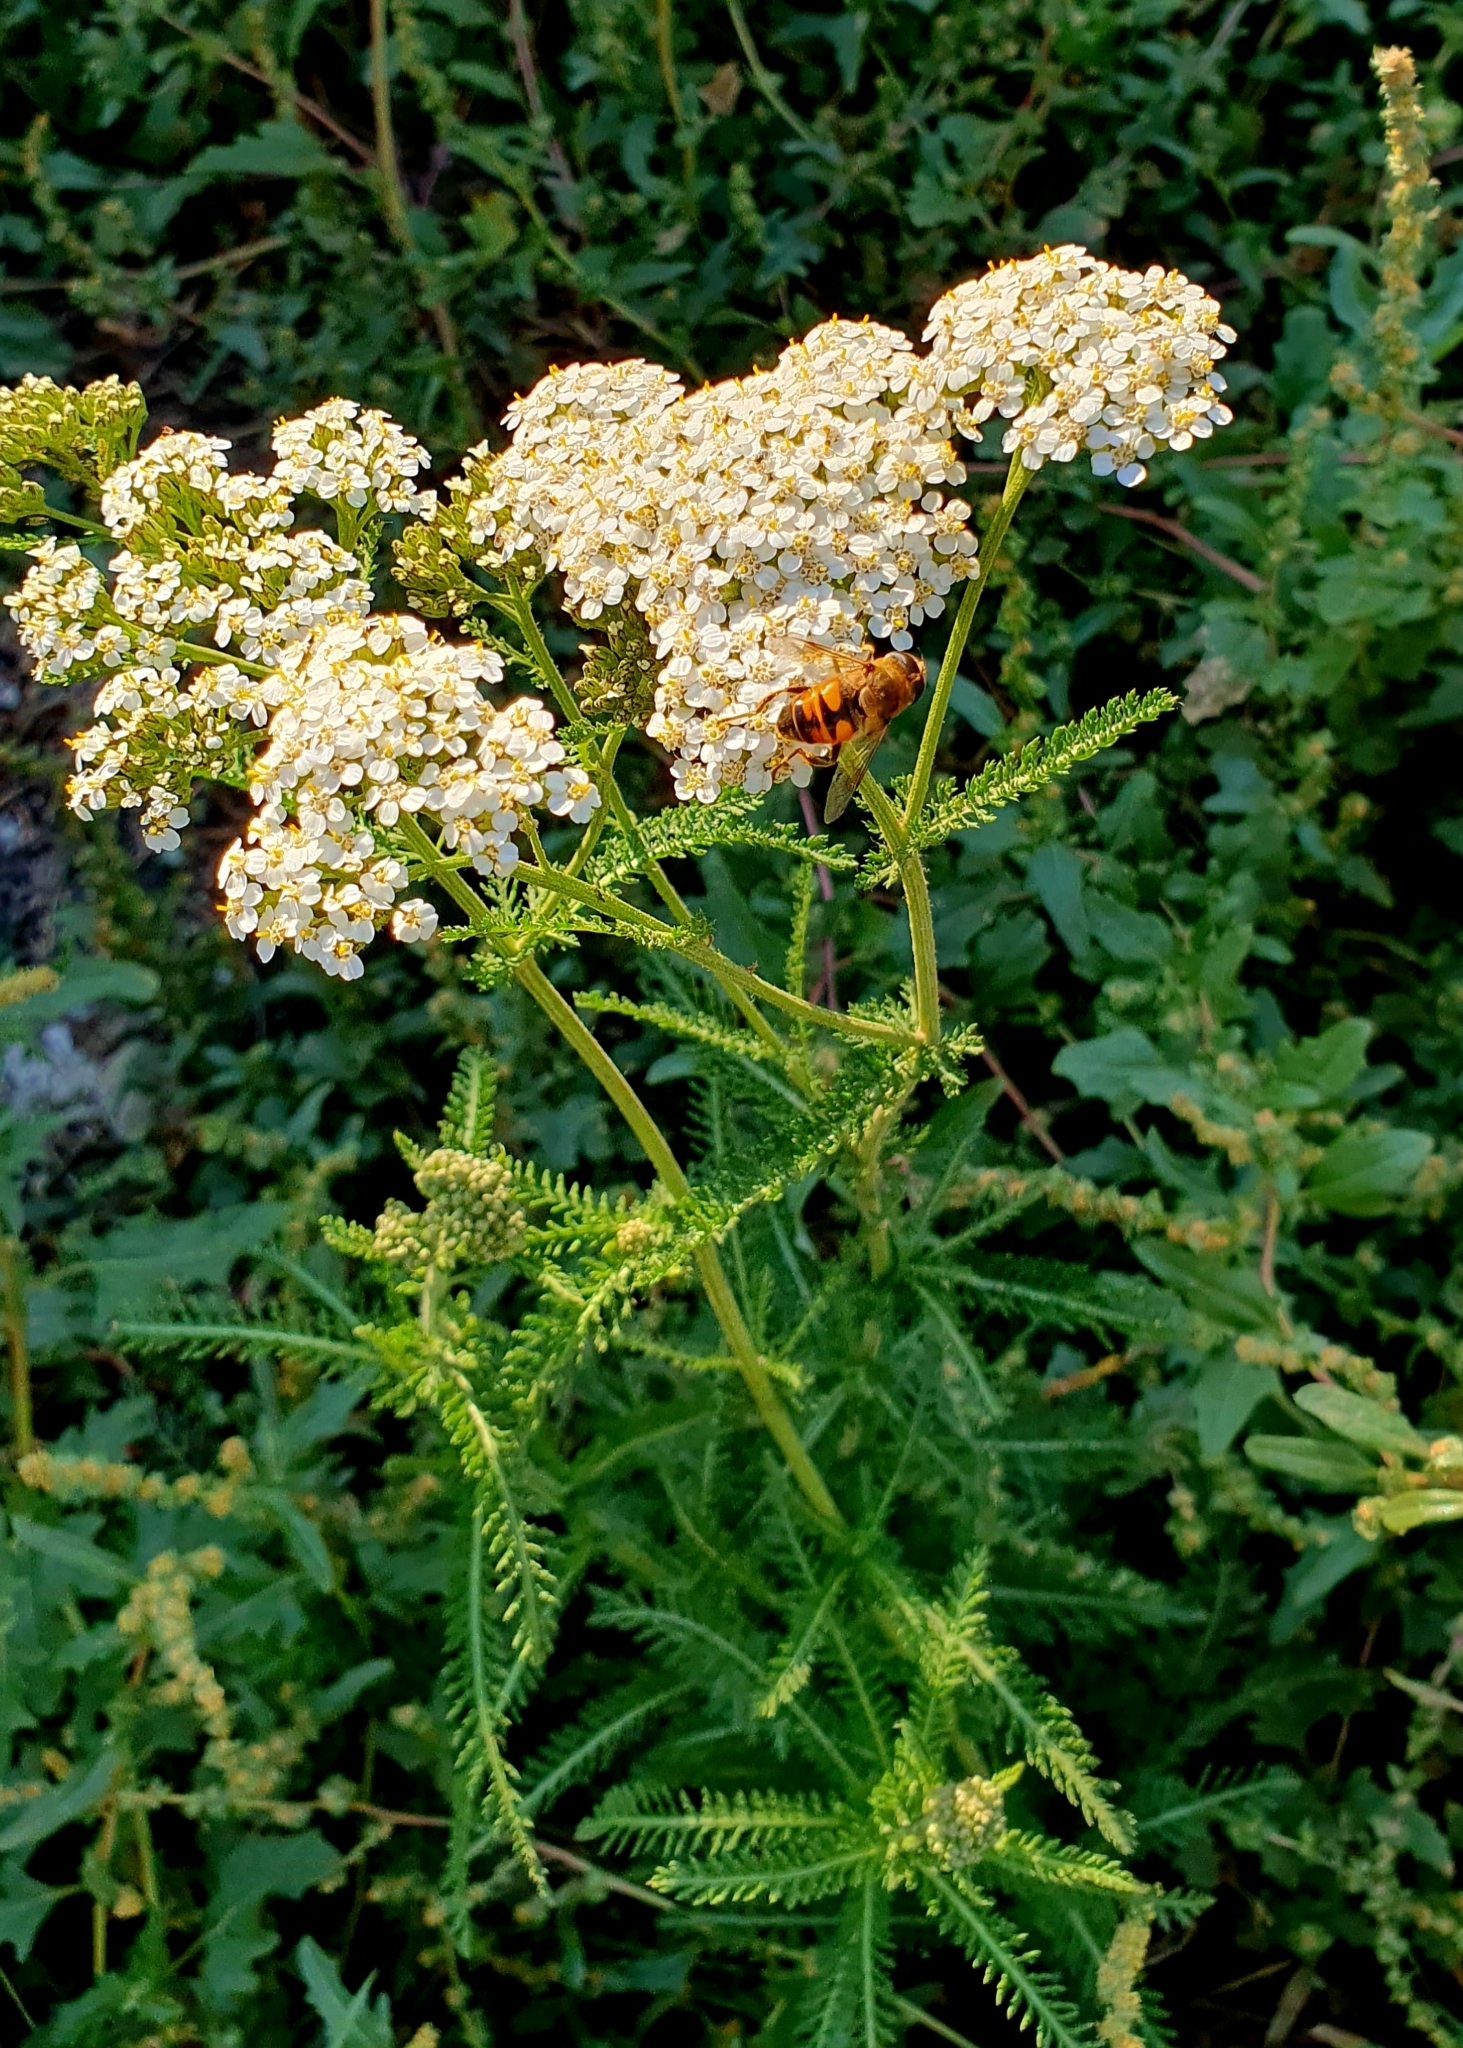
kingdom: Plantae
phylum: Tracheophyta
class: Magnoliopsida
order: Asterales
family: Asteraceae
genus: Achillea
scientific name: Achillea millefolium
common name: Yarrow
